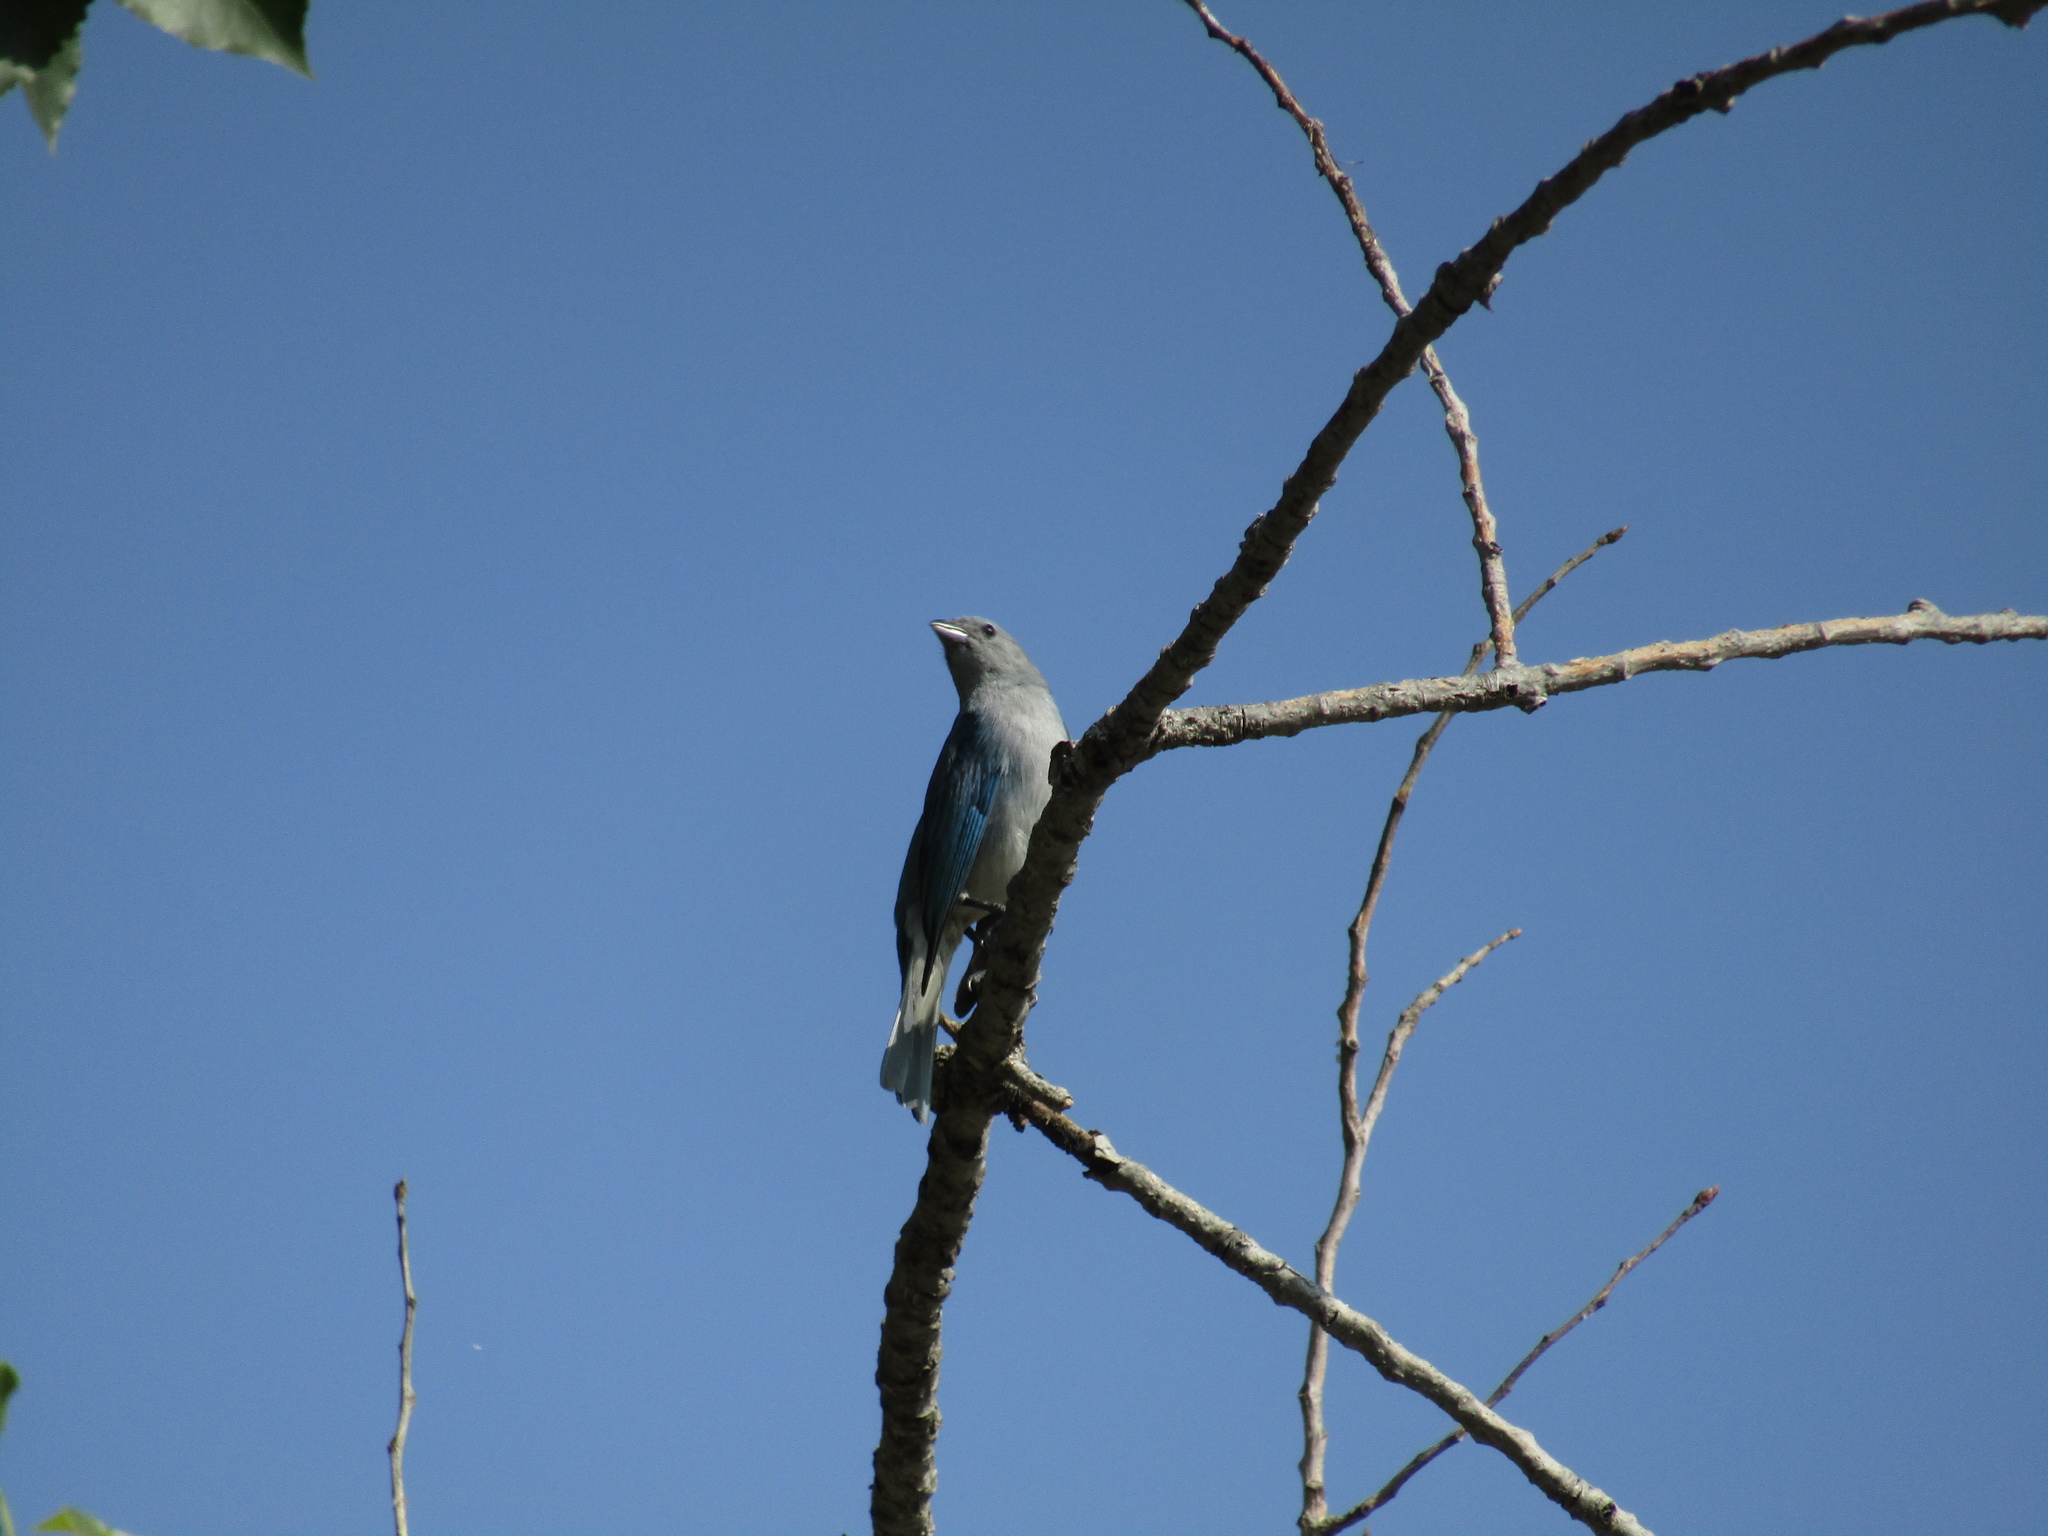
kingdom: Animalia
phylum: Chordata
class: Aves
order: Passeriformes
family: Thraupidae
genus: Thraupis
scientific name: Thraupis sayaca
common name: Sayaca tanager
